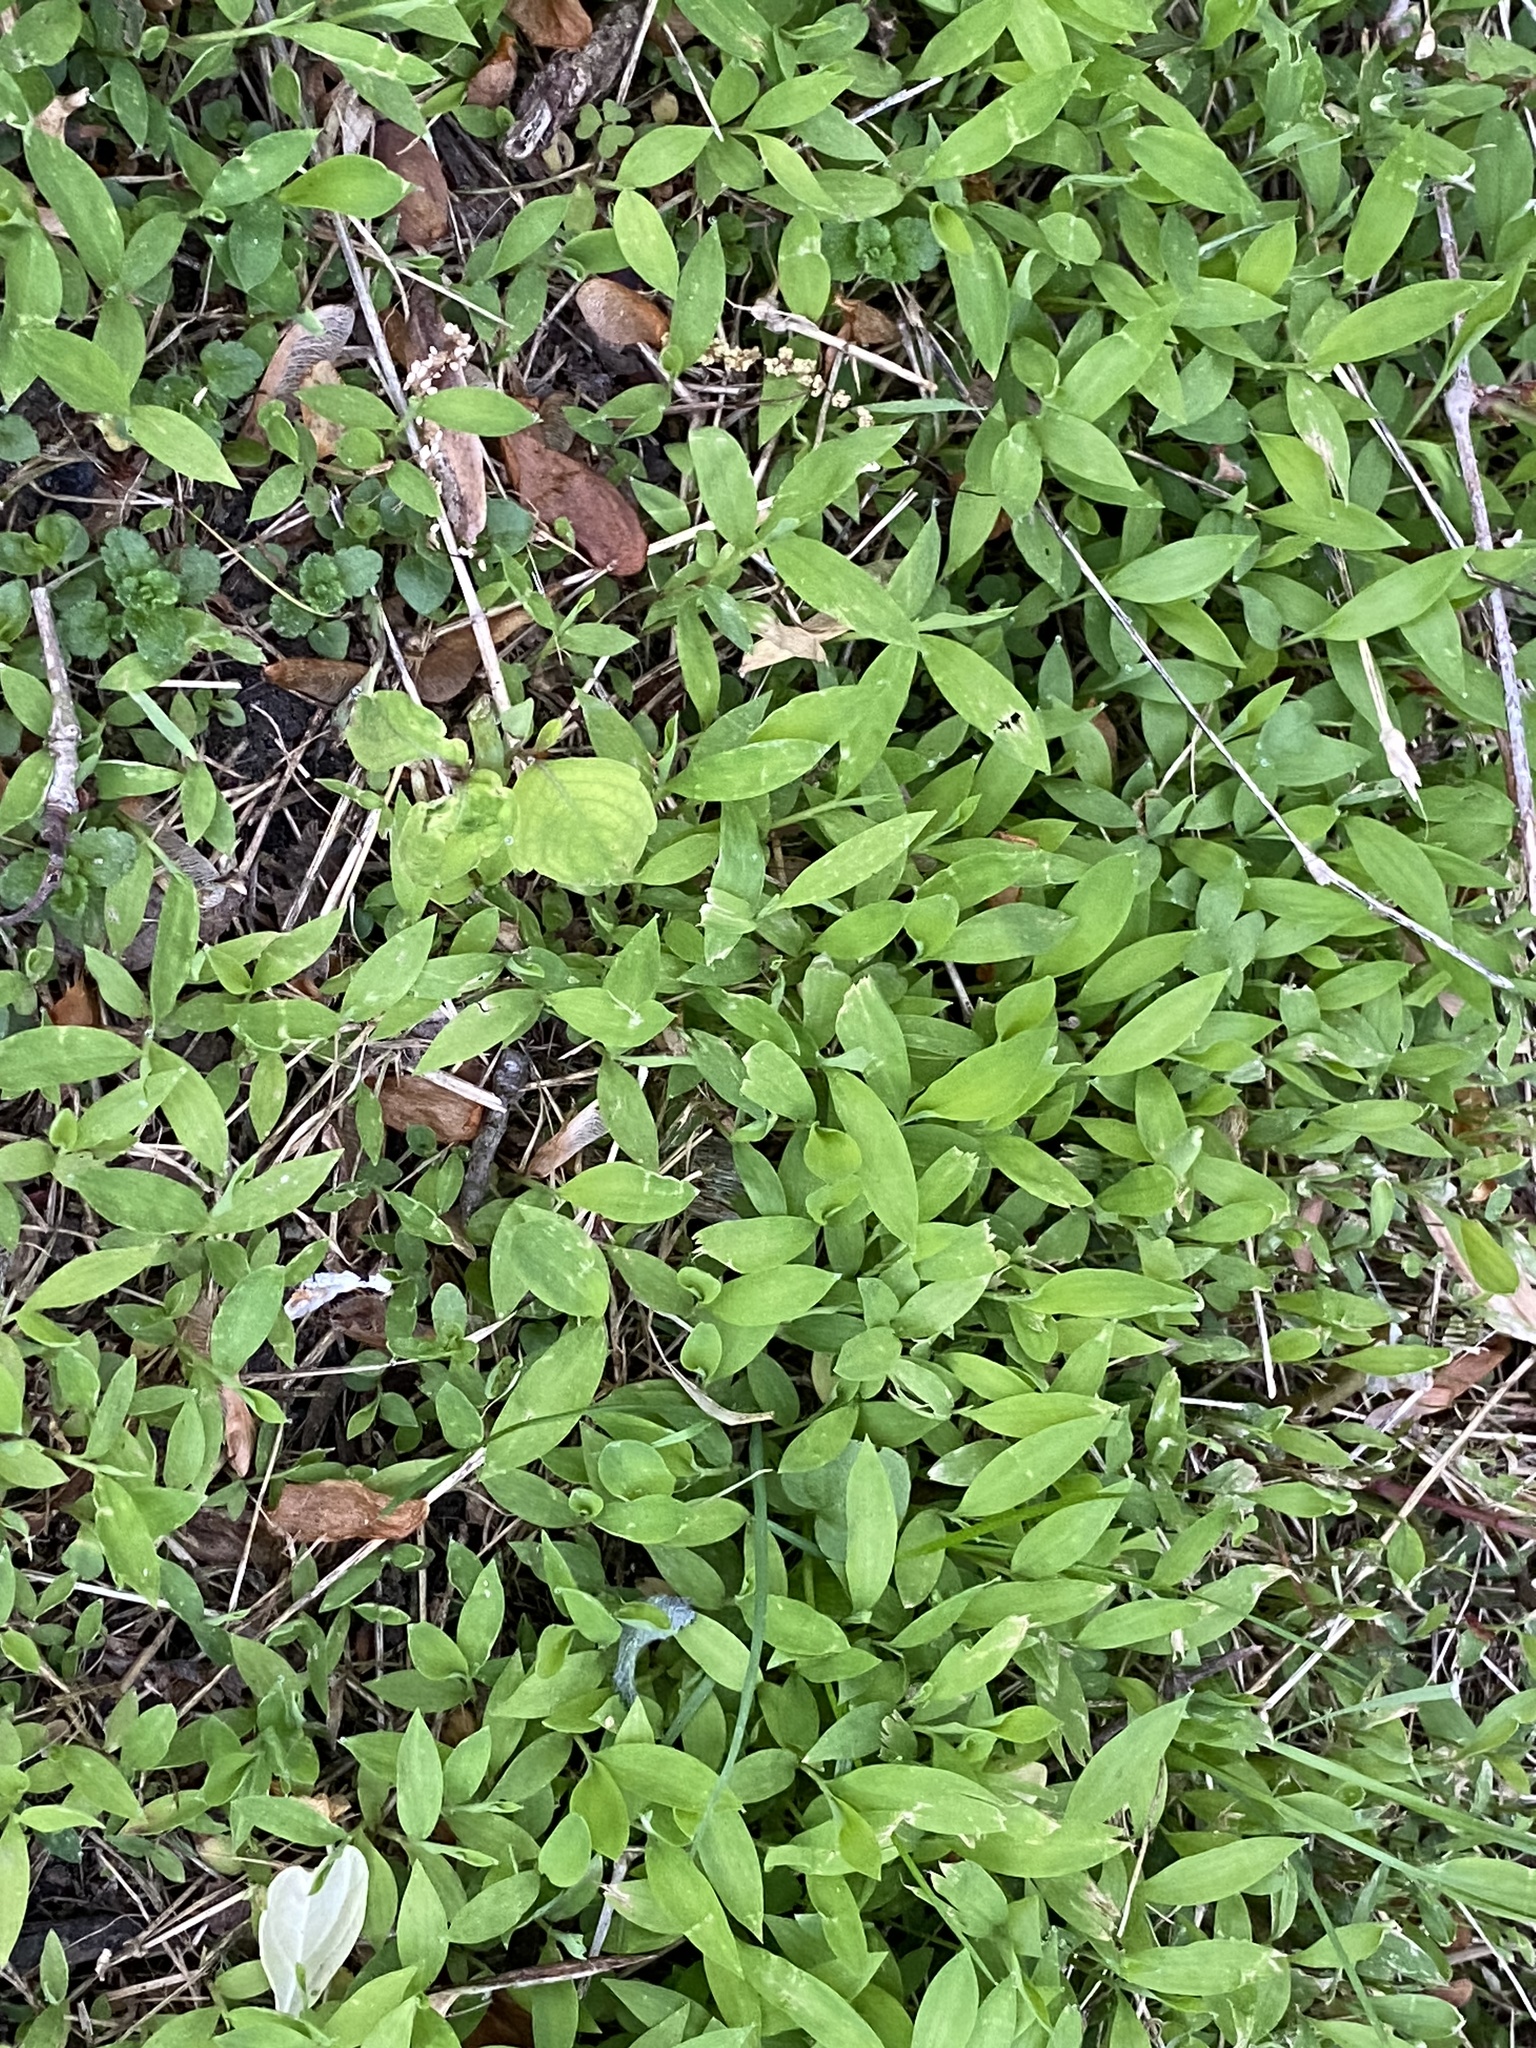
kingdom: Plantae
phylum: Tracheophyta
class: Liliopsida
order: Poales
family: Poaceae
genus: Microstegium
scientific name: Microstegium vimineum
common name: Japanese stiltgrass
